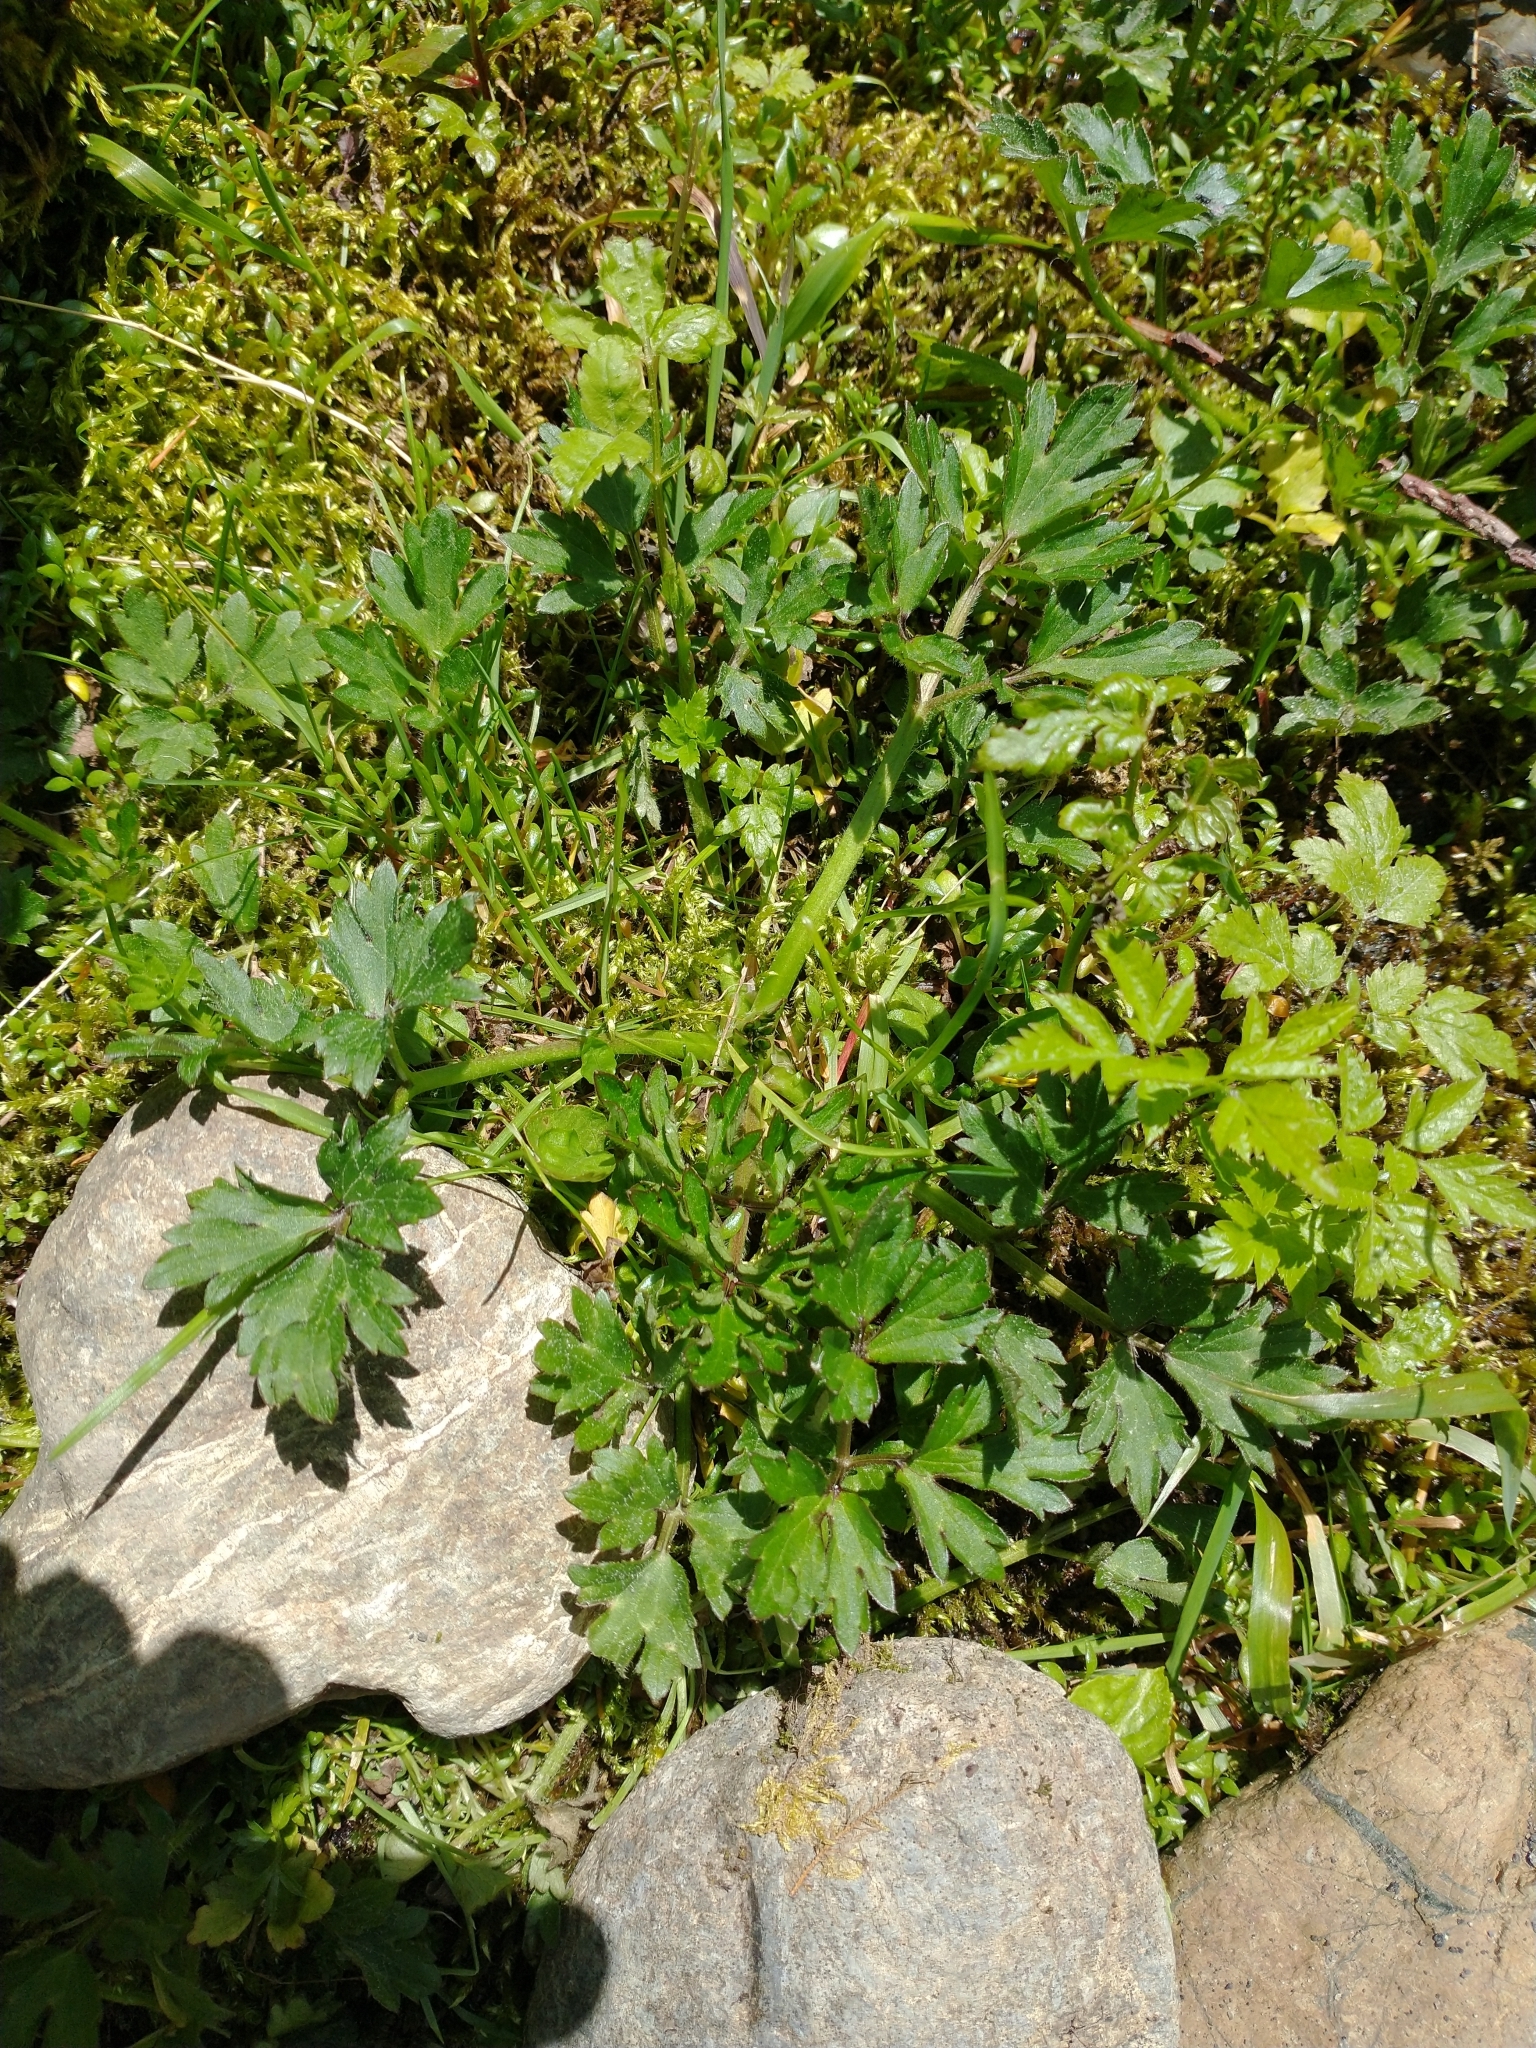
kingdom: Plantae
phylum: Tracheophyta
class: Magnoliopsida
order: Ranunculales
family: Ranunculaceae
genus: Ranunculus
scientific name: Ranunculus repens
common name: Creeping buttercup
